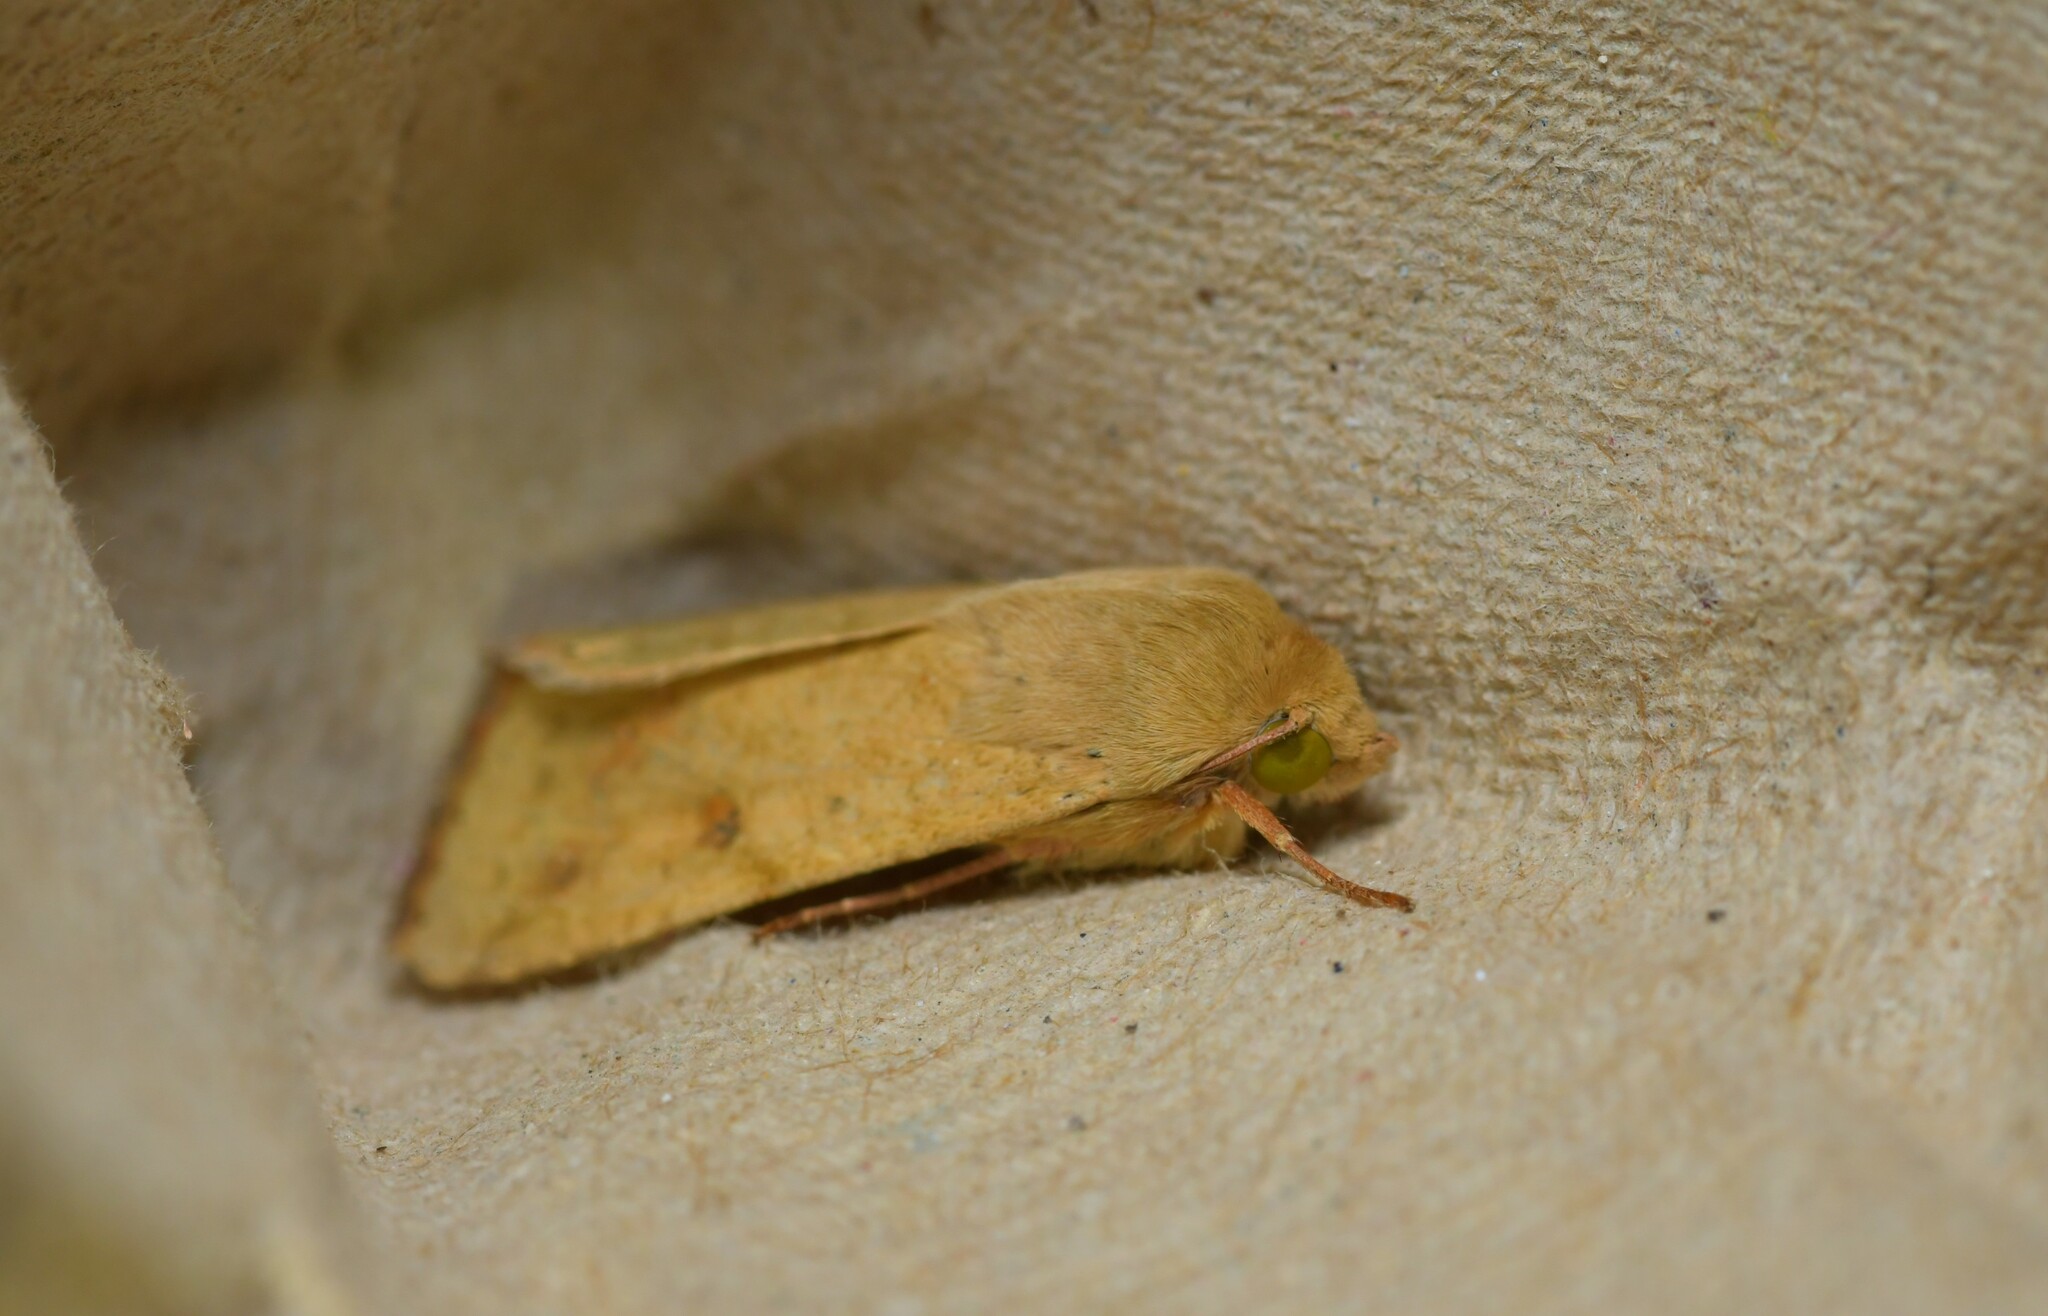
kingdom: Animalia
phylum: Arthropoda
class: Insecta
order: Lepidoptera
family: Noctuidae
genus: Helicoverpa
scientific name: Helicoverpa armigera
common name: Cotton bollworm
